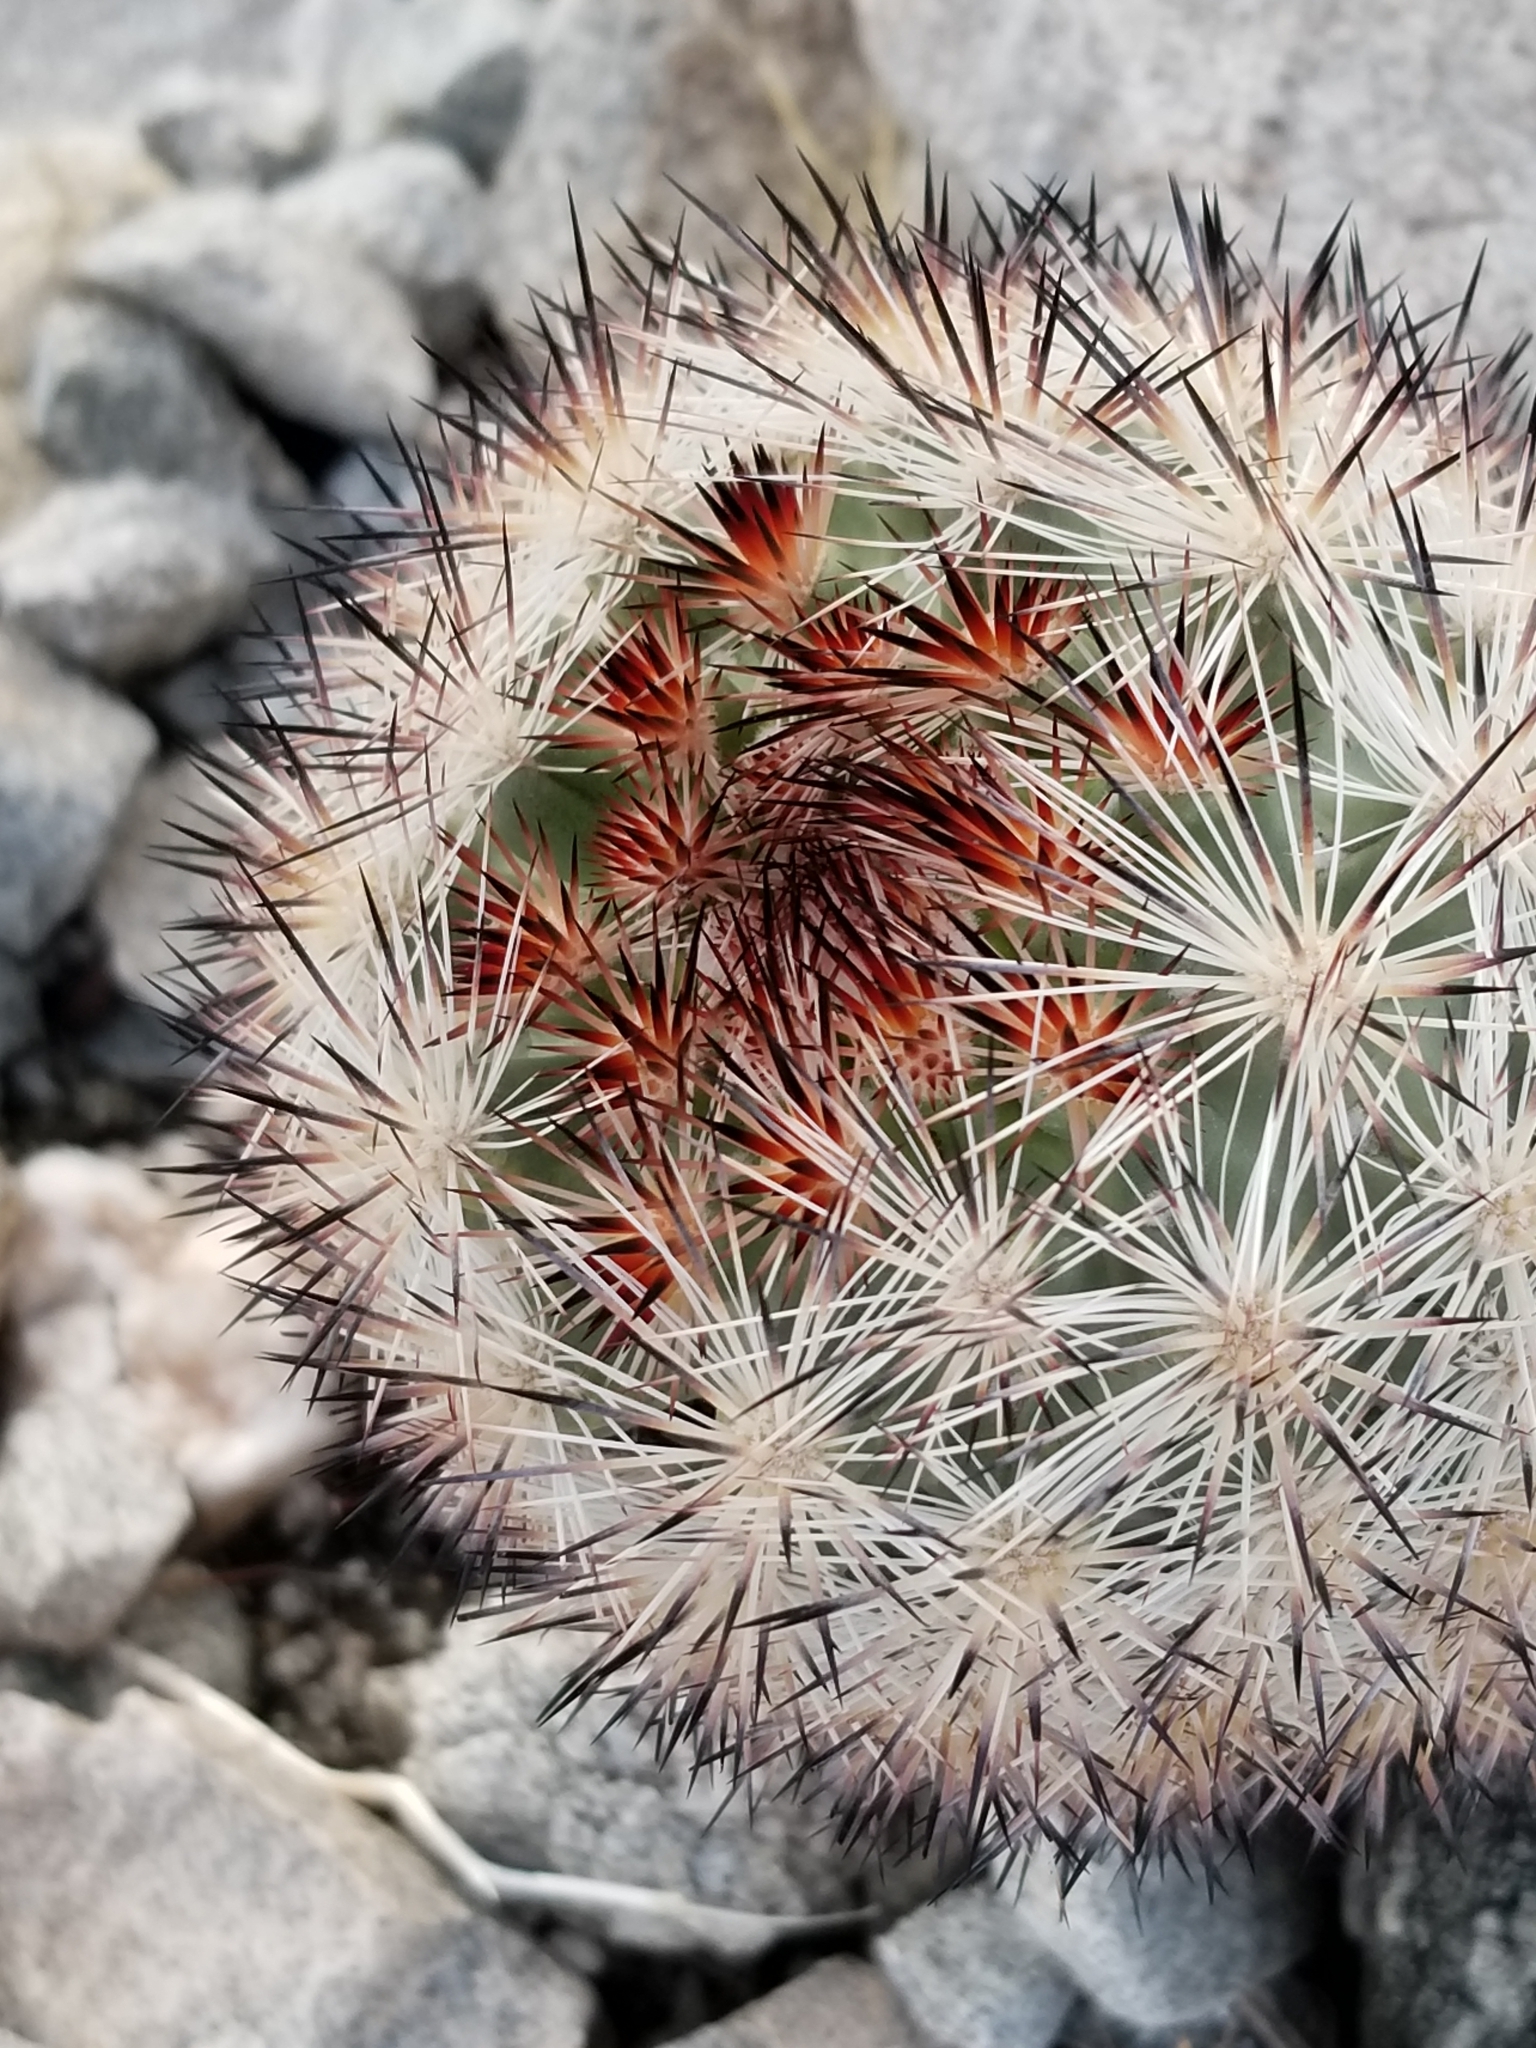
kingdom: Plantae
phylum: Tracheophyta
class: Magnoliopsida
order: Caryophyllales
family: Cactaceae
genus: Pelecyphora
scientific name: Pelecyphora alversonii
